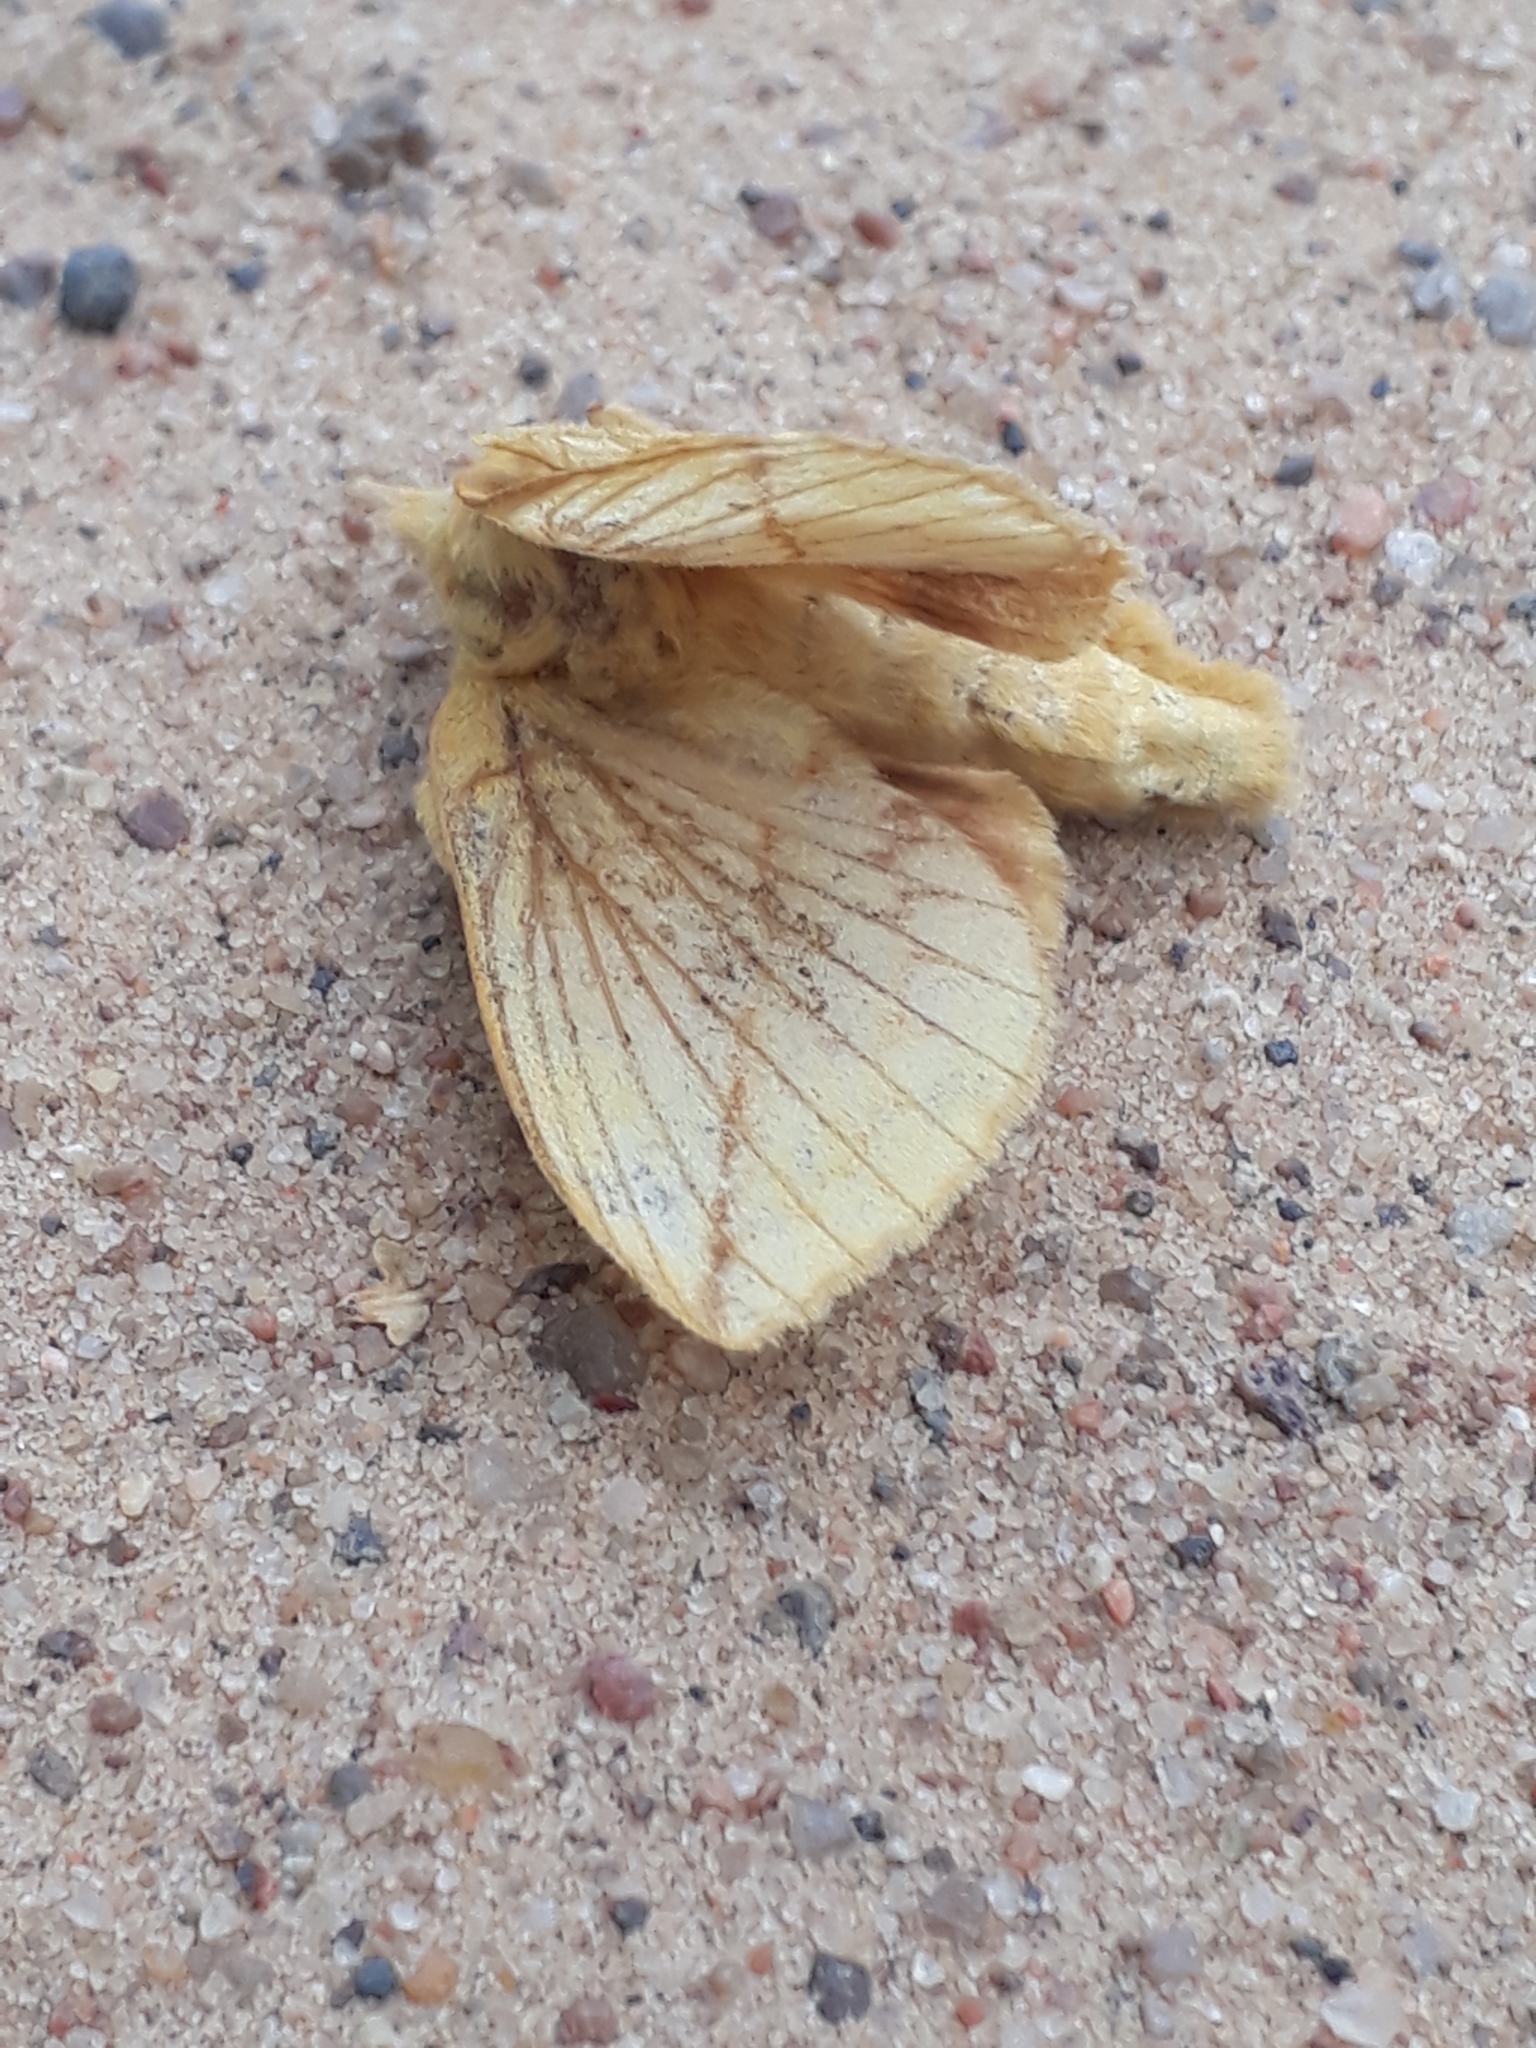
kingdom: Animalia
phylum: Arthropoda
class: Insecta
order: Lepidoptera
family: Lasiocampidae
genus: Euthrix
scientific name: Euthrix potatoria
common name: Drinker
